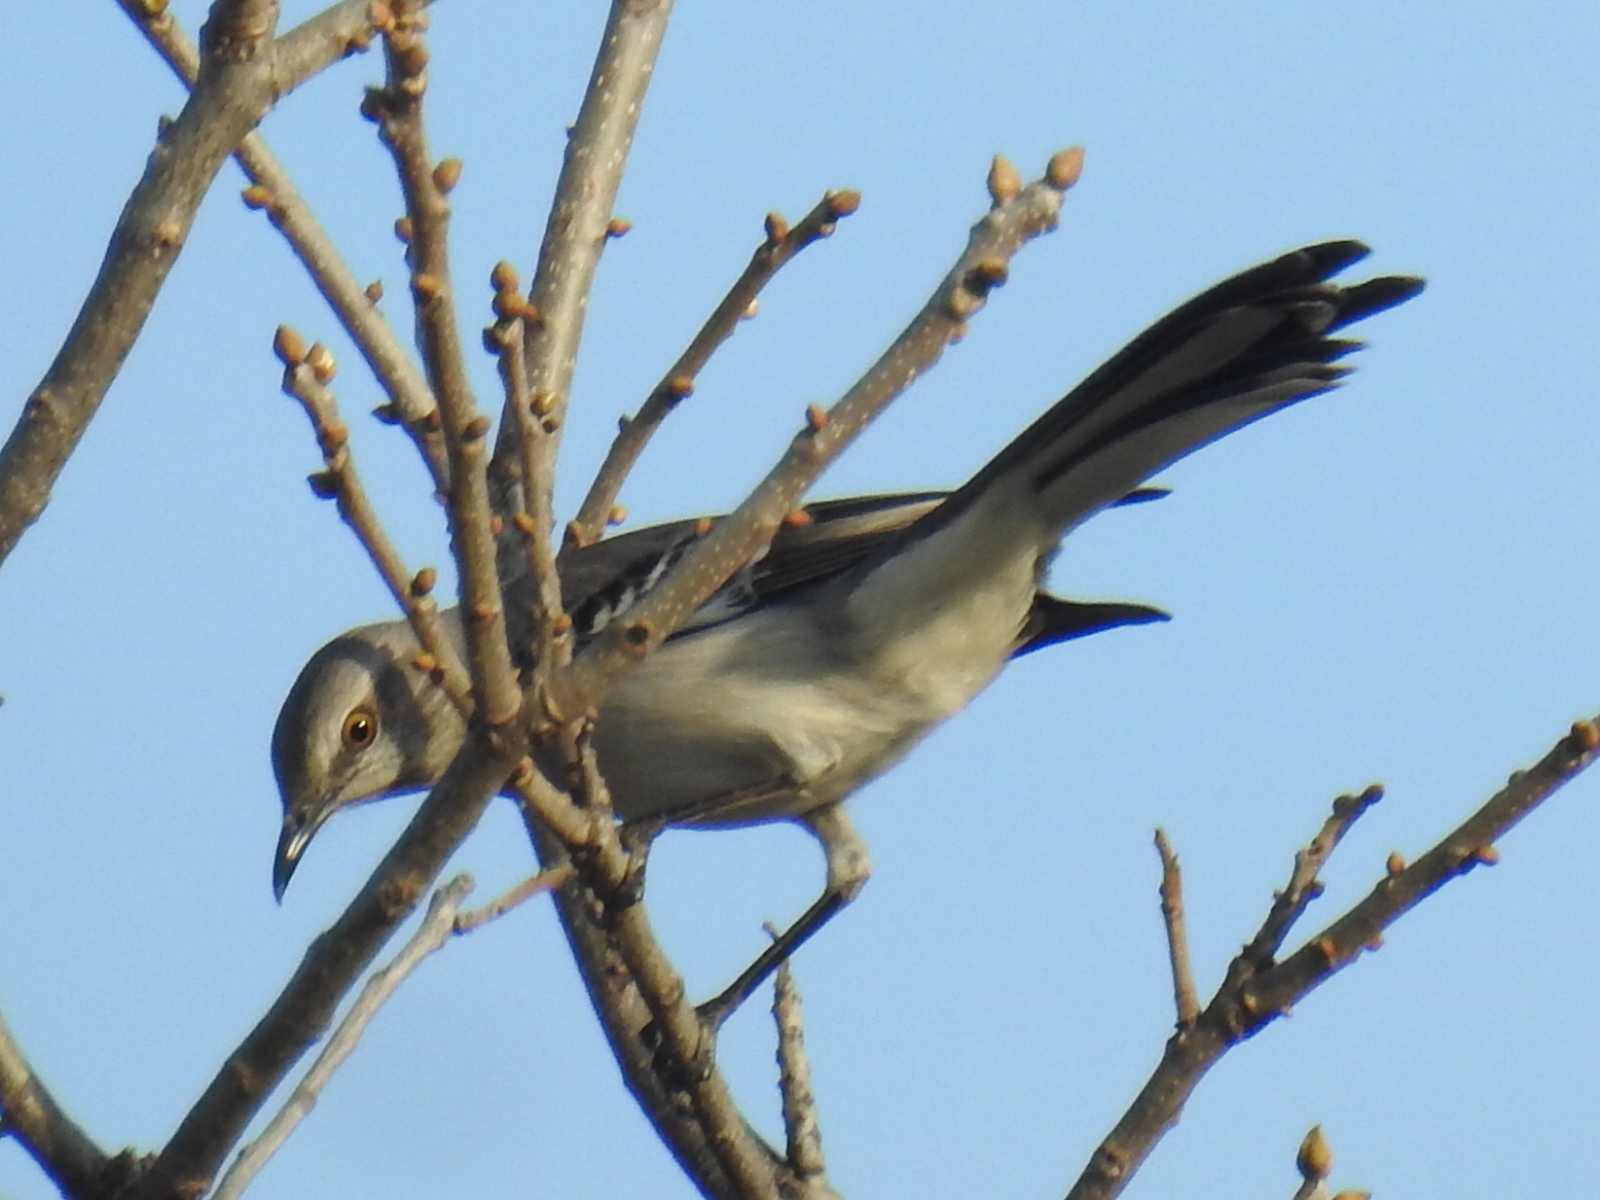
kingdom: Animalia
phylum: Chordata
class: Aves
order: Passeriformes
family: Mimidae
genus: Mimus
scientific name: Mimus polyglottos
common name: Northern mockingbird
